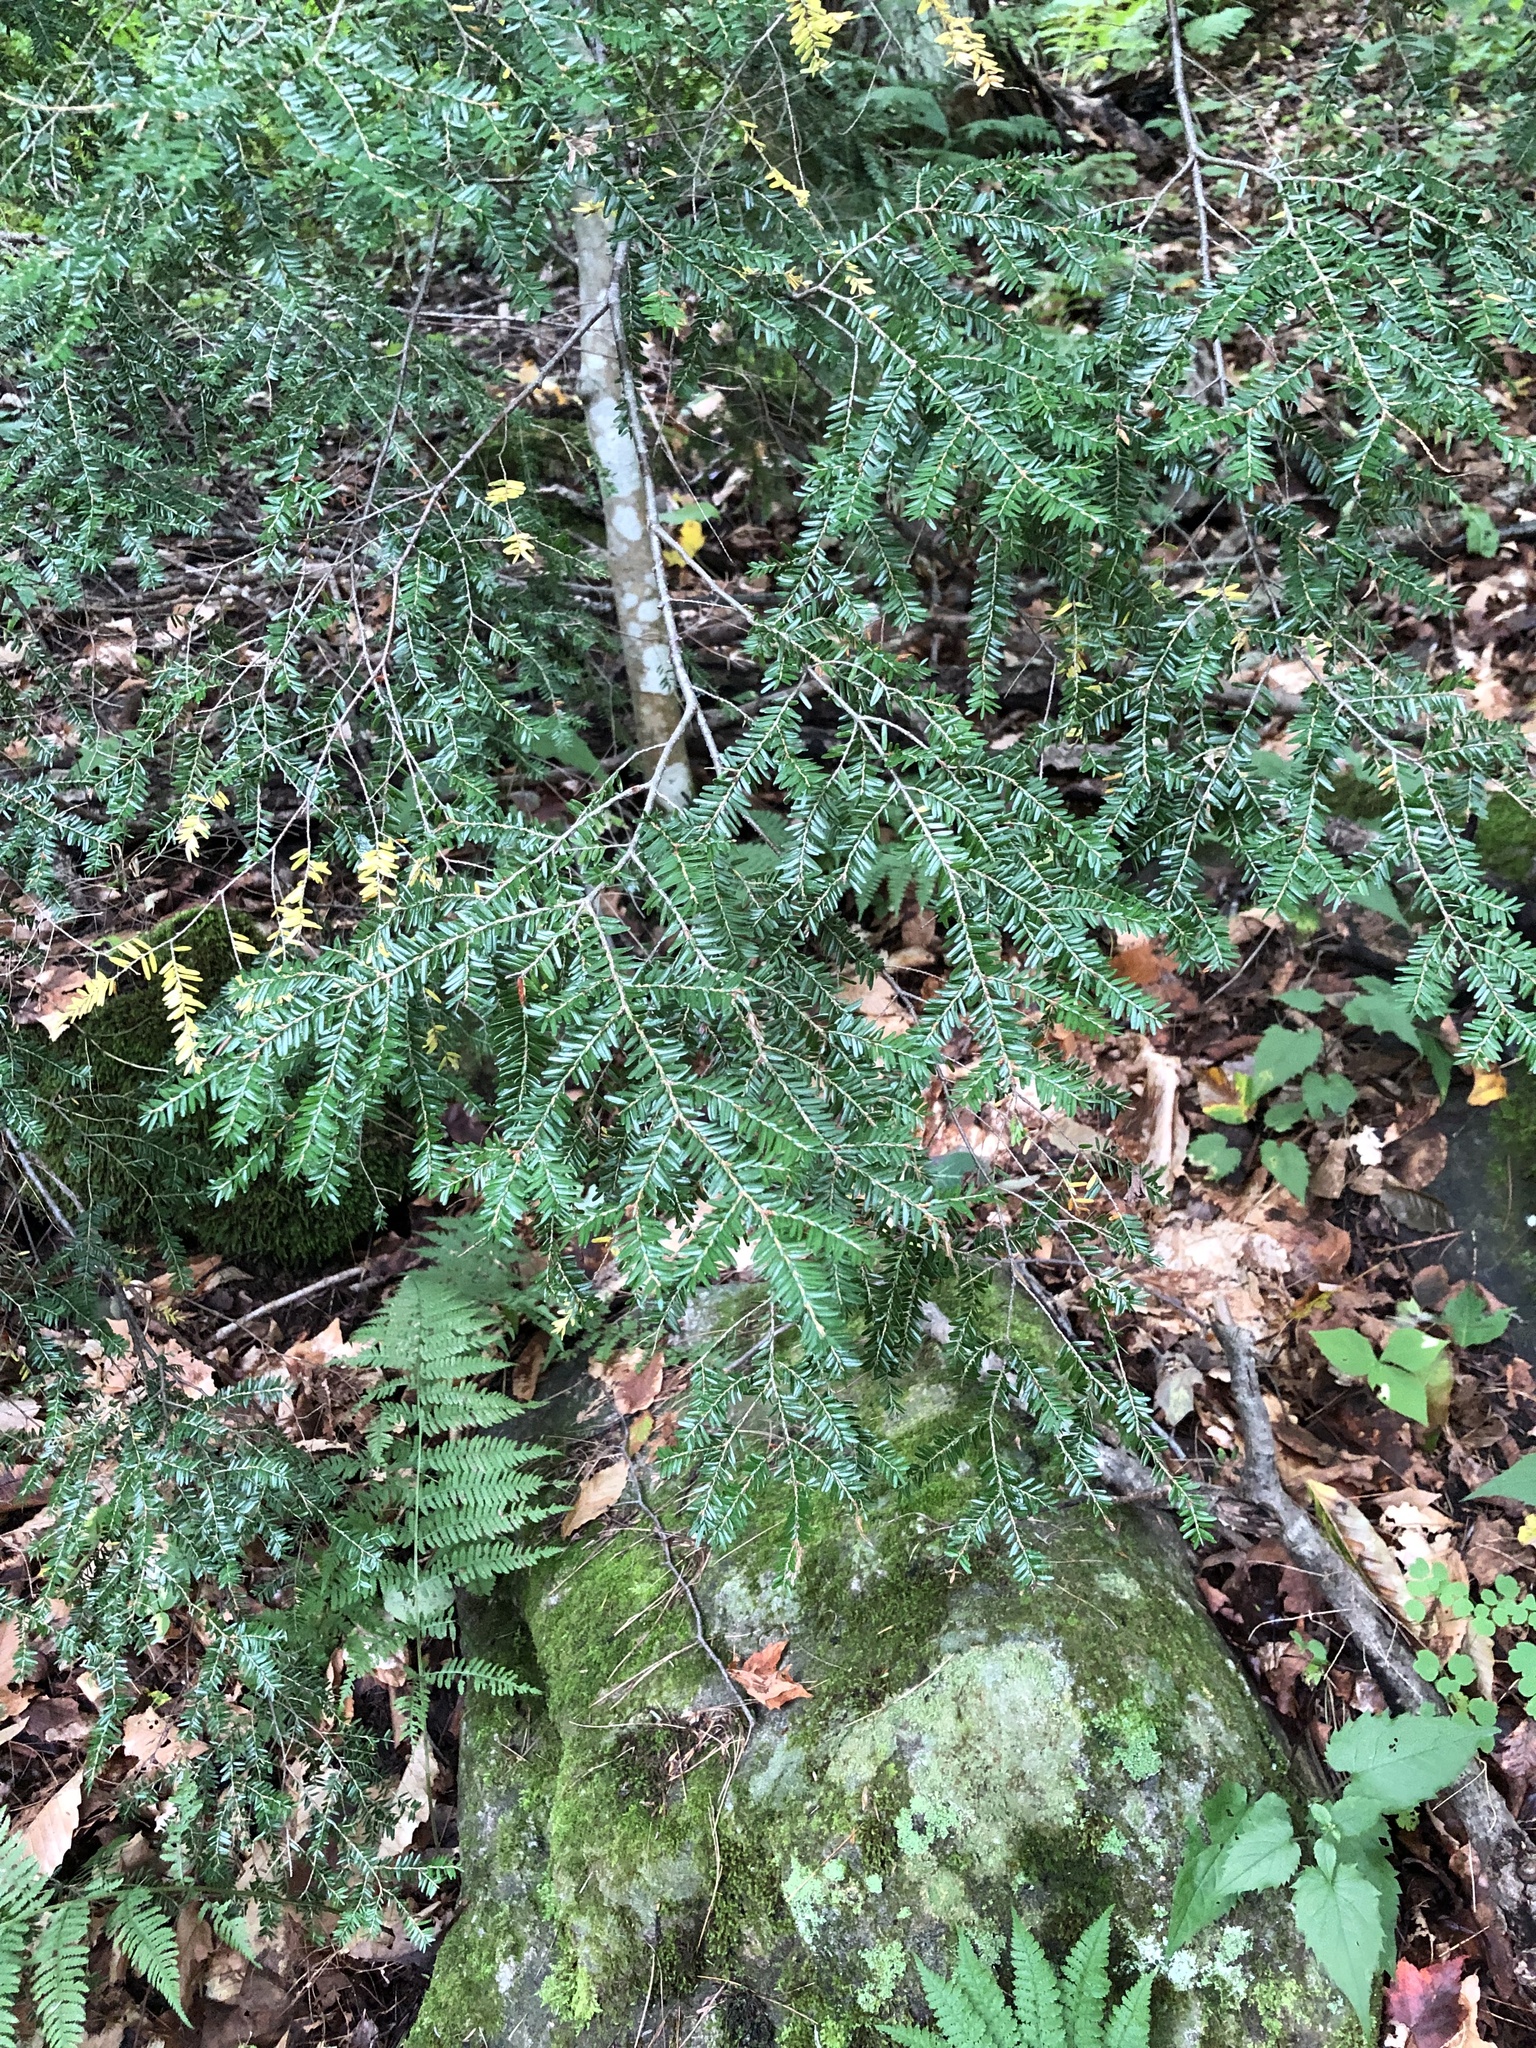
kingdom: Plantae
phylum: Tracheophyta
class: Pinopsida
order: Pinales
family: Pinaceae
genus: Tsuga
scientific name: Tsuga canadensis
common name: Eastern hemlock
